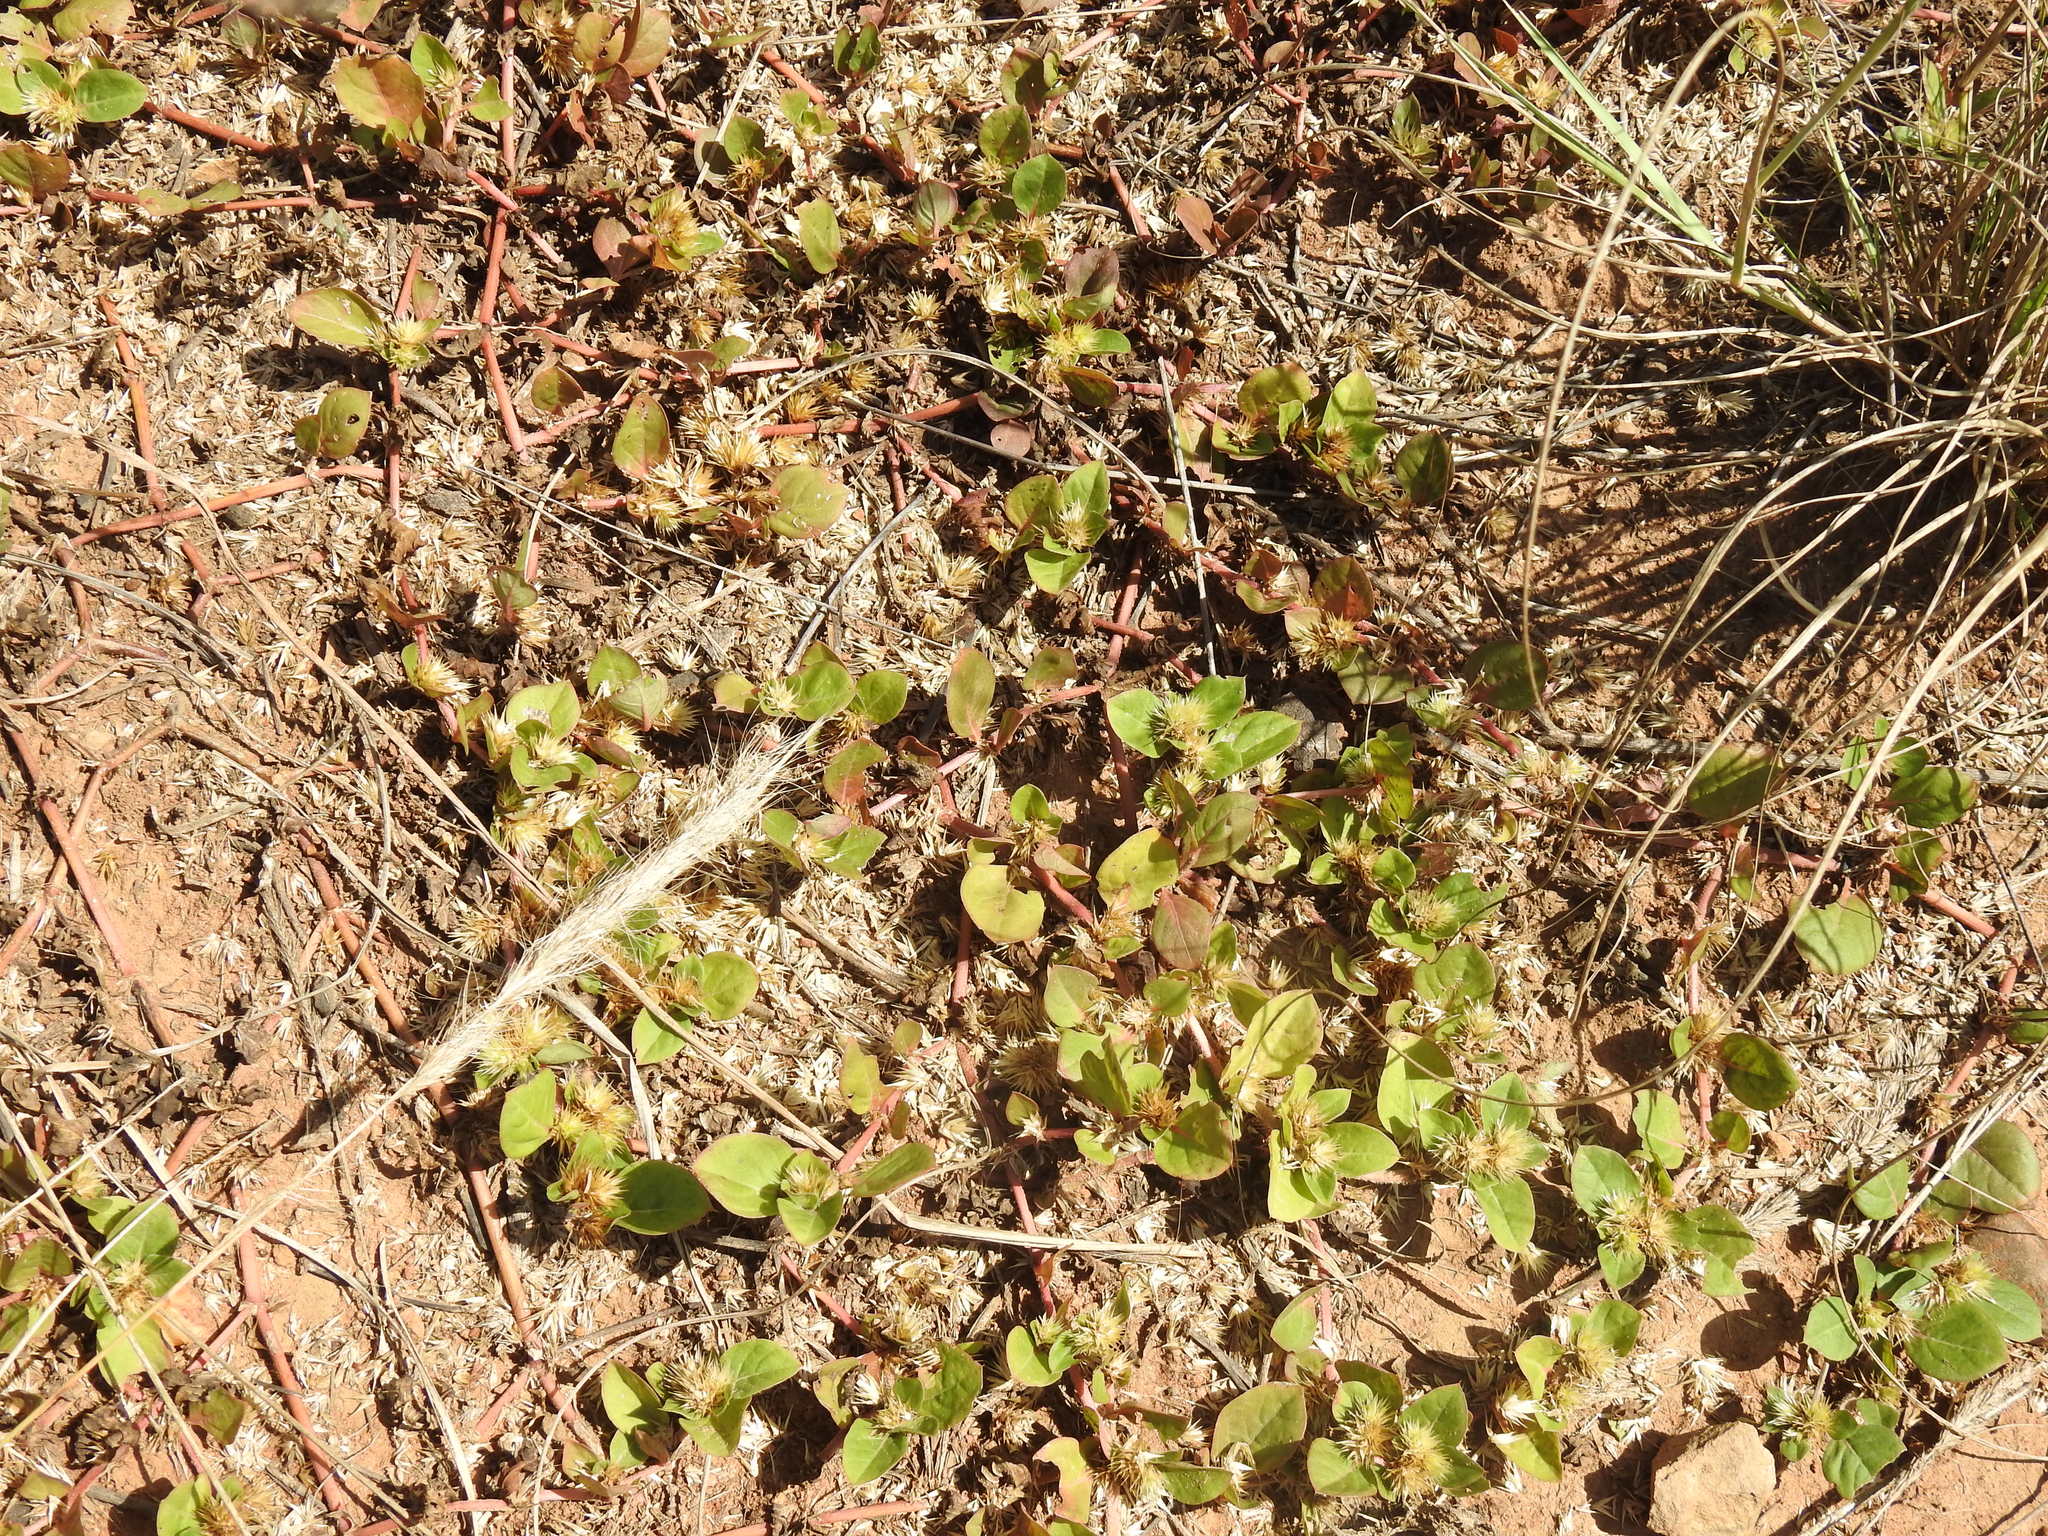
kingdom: Plantae
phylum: Tracheophyta
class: Magnoliopsida
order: Gentianales
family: Rubiaceae
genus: Richardia
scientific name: Richardia brasiliensis
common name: Tropical mexican clover
